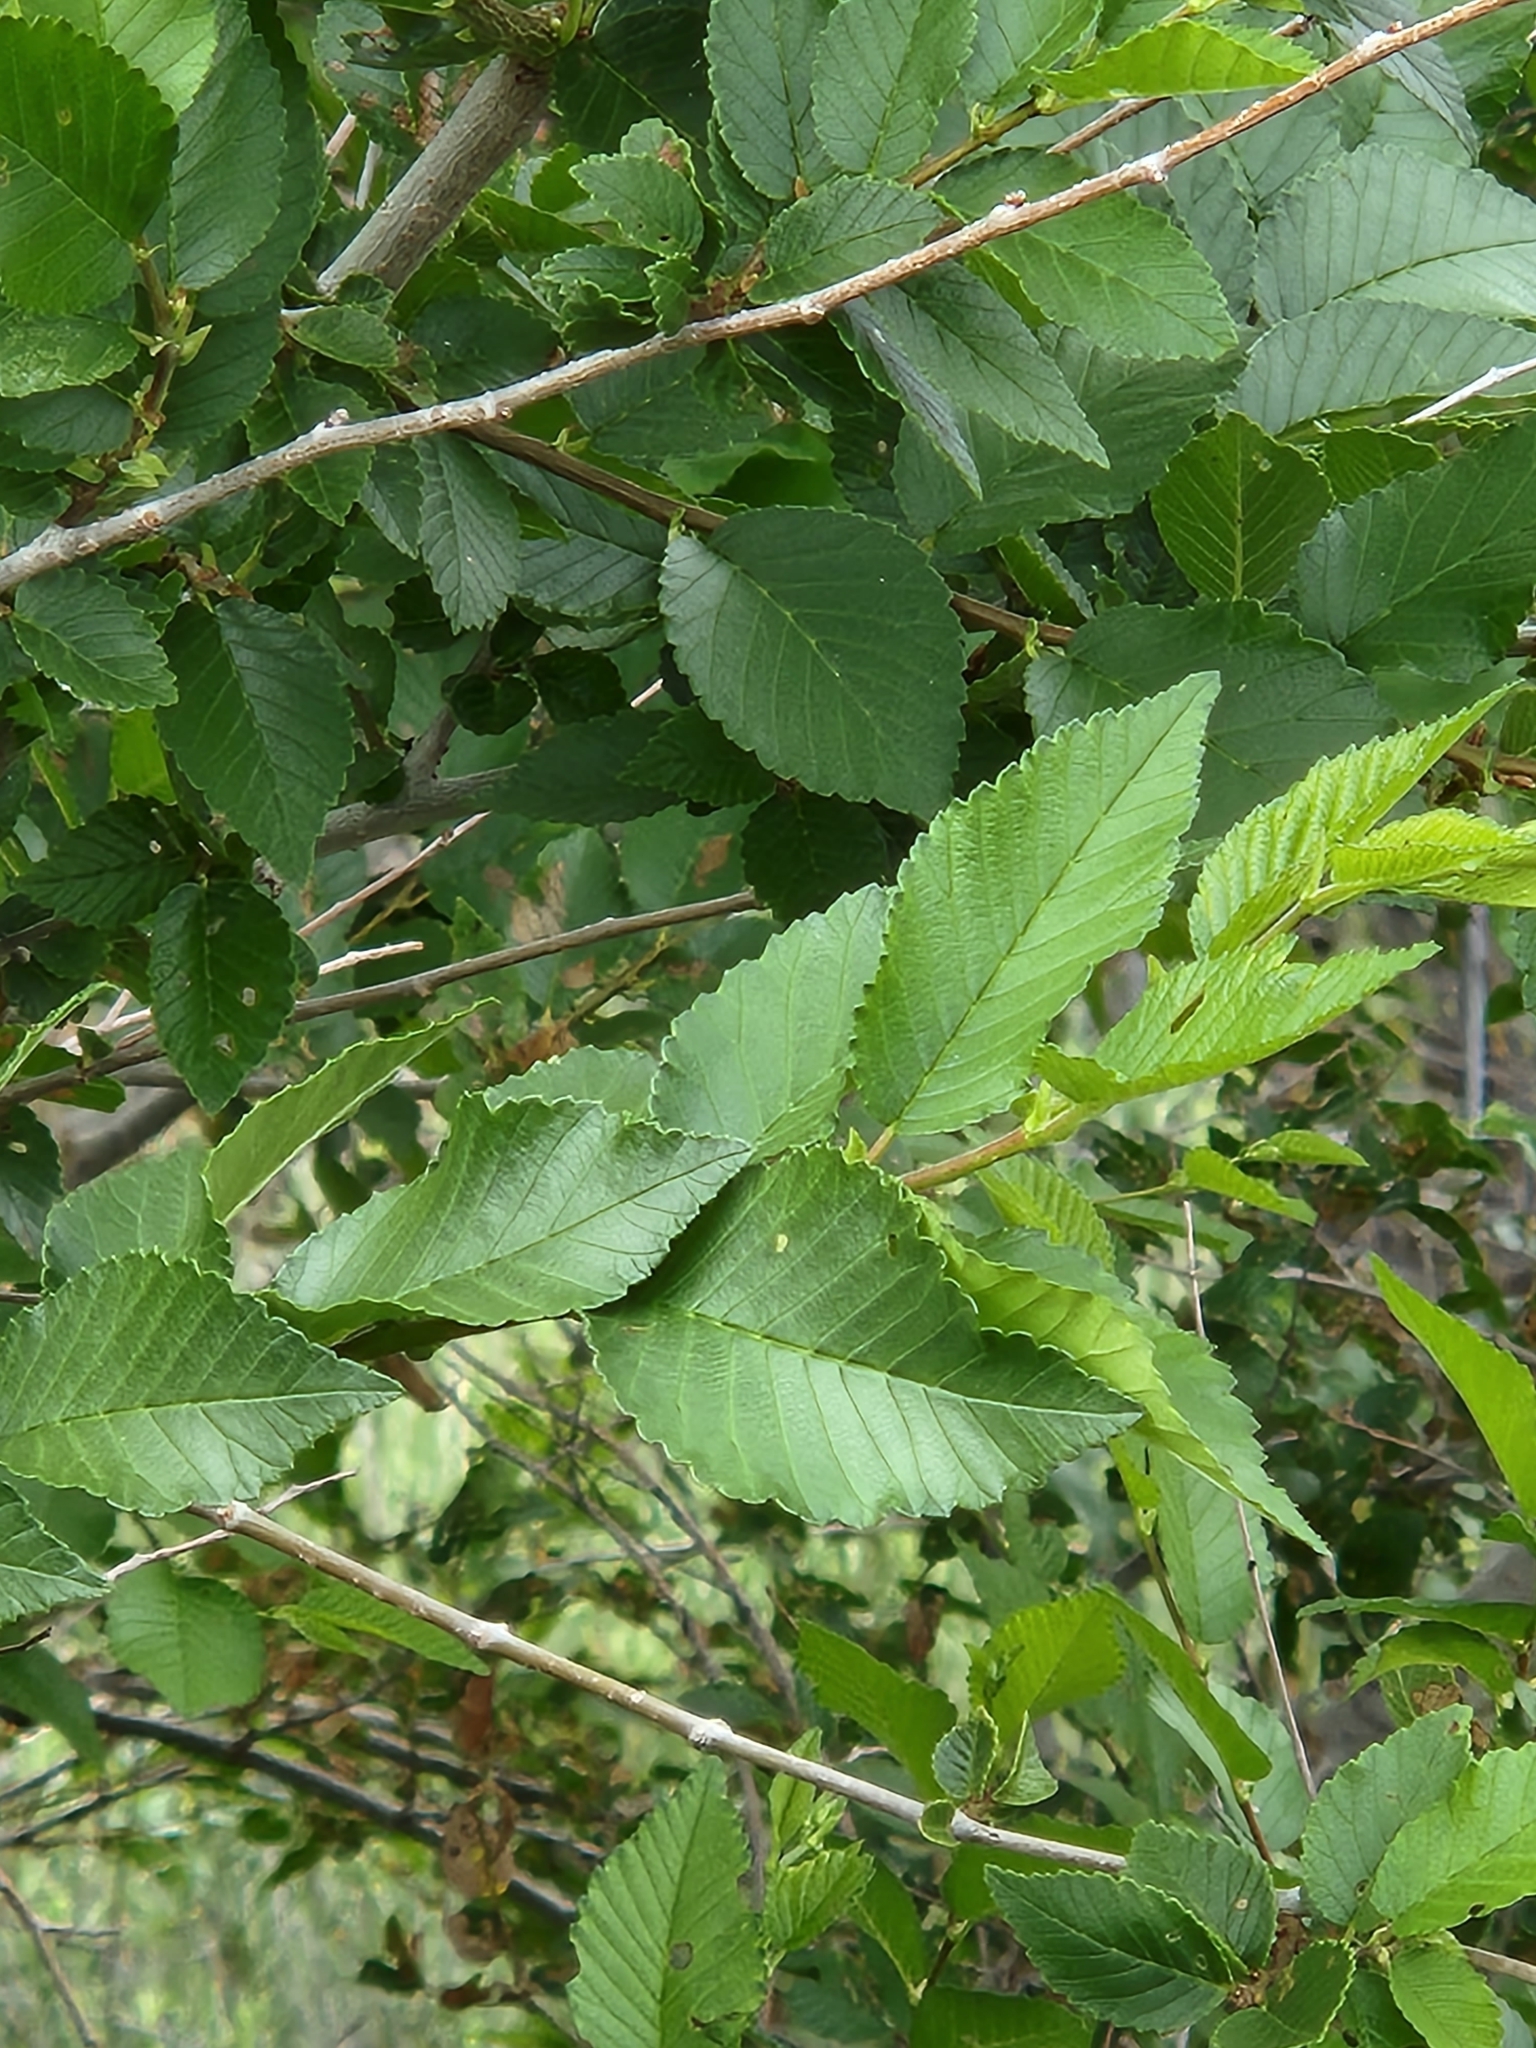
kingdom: Plantae
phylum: Tracheophyta
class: Magnoliopsida
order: Rosales
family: Ulmaceae
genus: Ulmus
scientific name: Ulmus pumila
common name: Siberian elm
